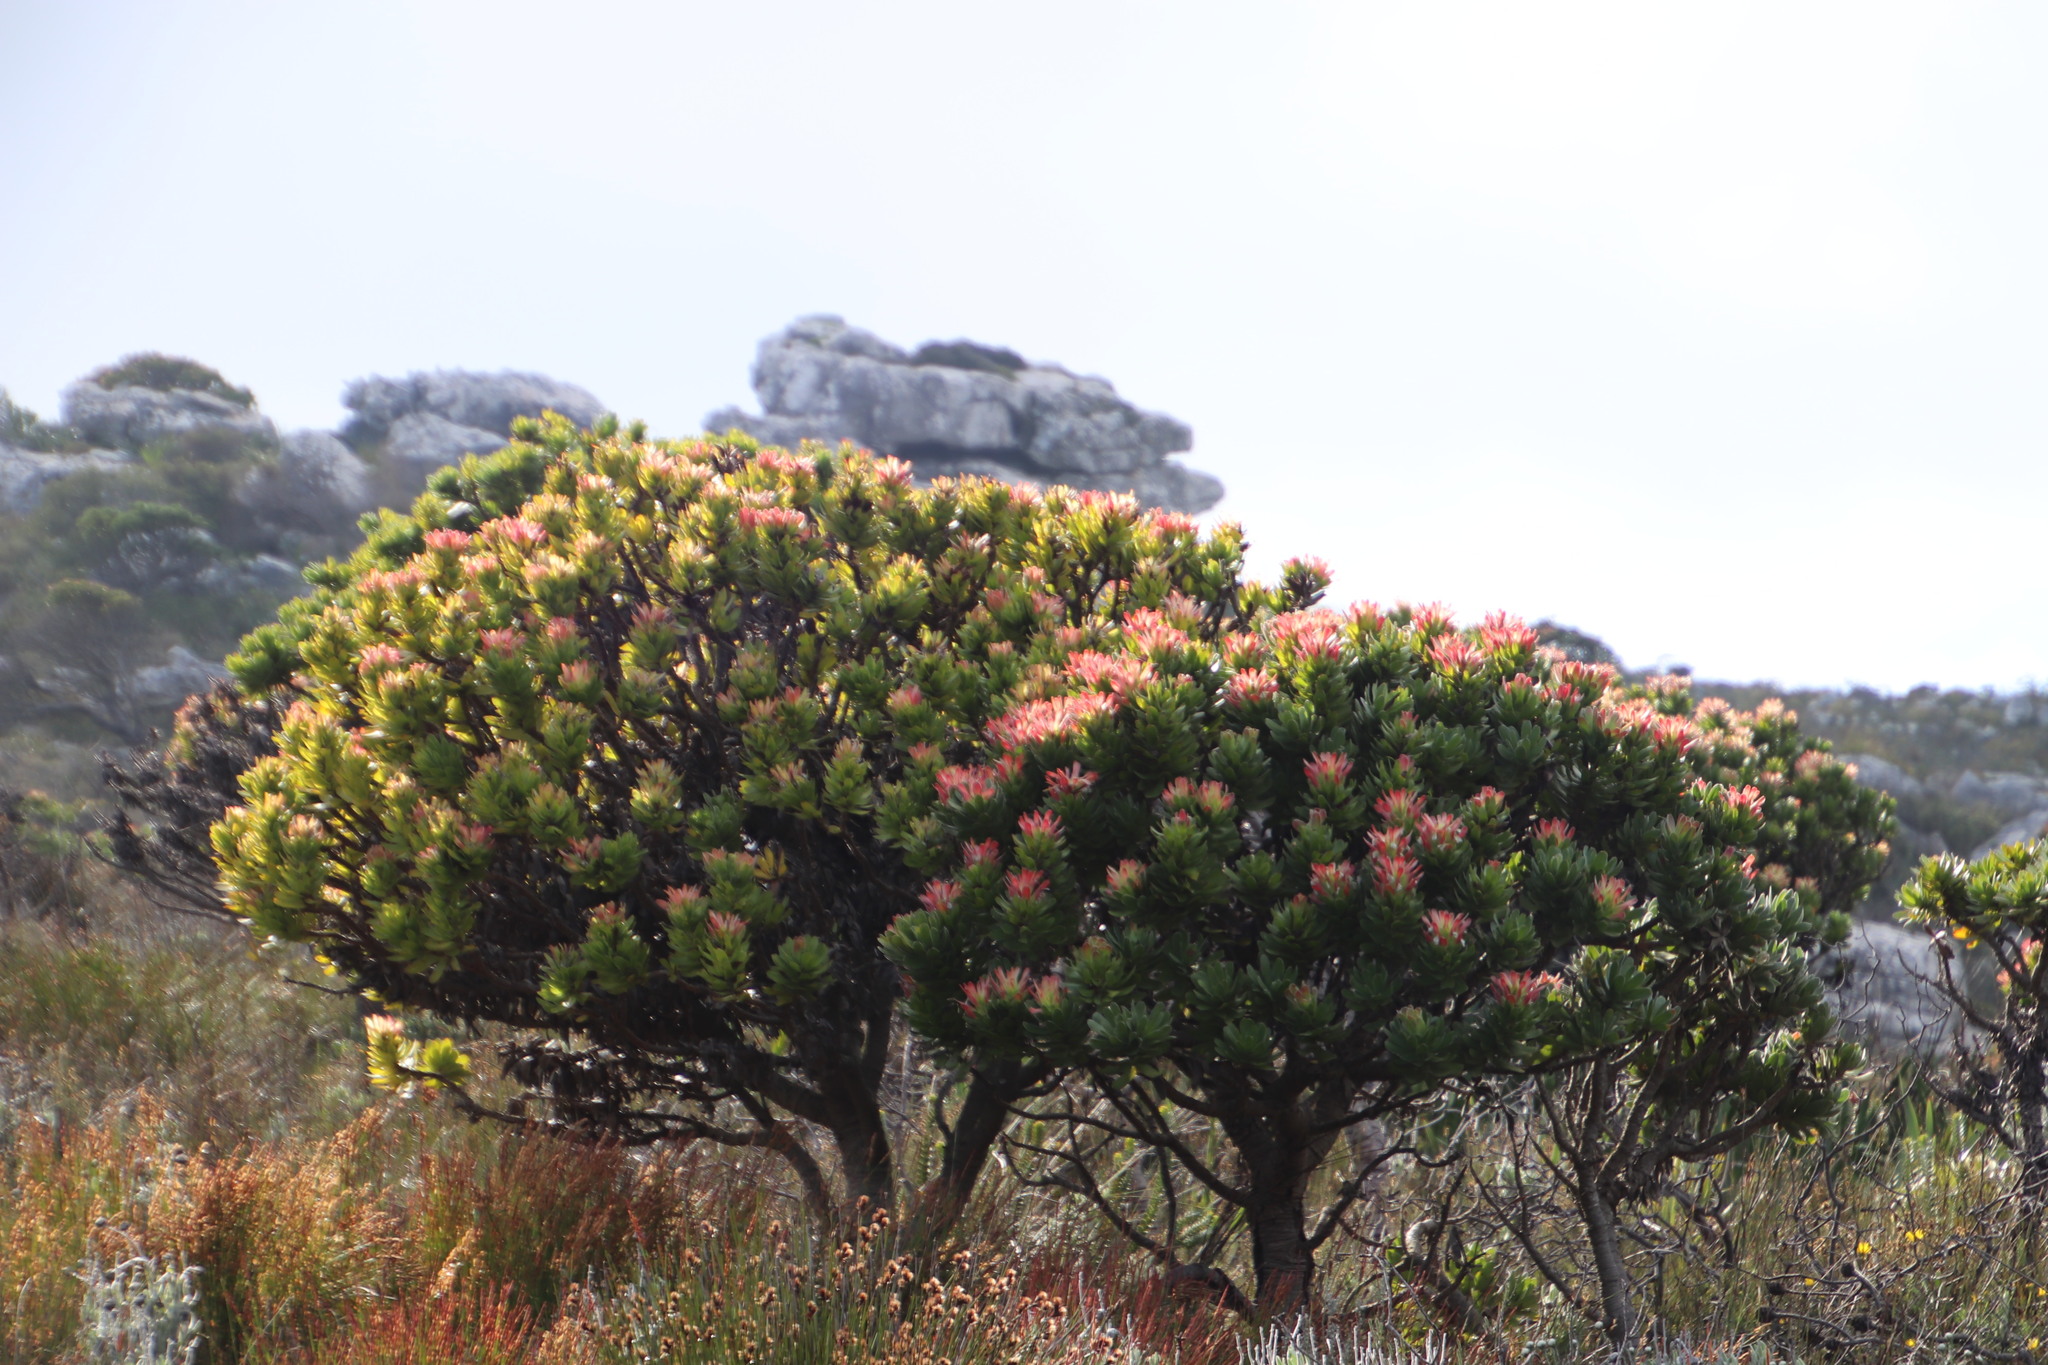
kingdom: Plantae
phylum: Tracheophyta
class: Magnoliopsida
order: Proteales
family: Proteaceae
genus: Mimetes
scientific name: Mimetes fimbriifolius
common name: Fringed bottlebrush
